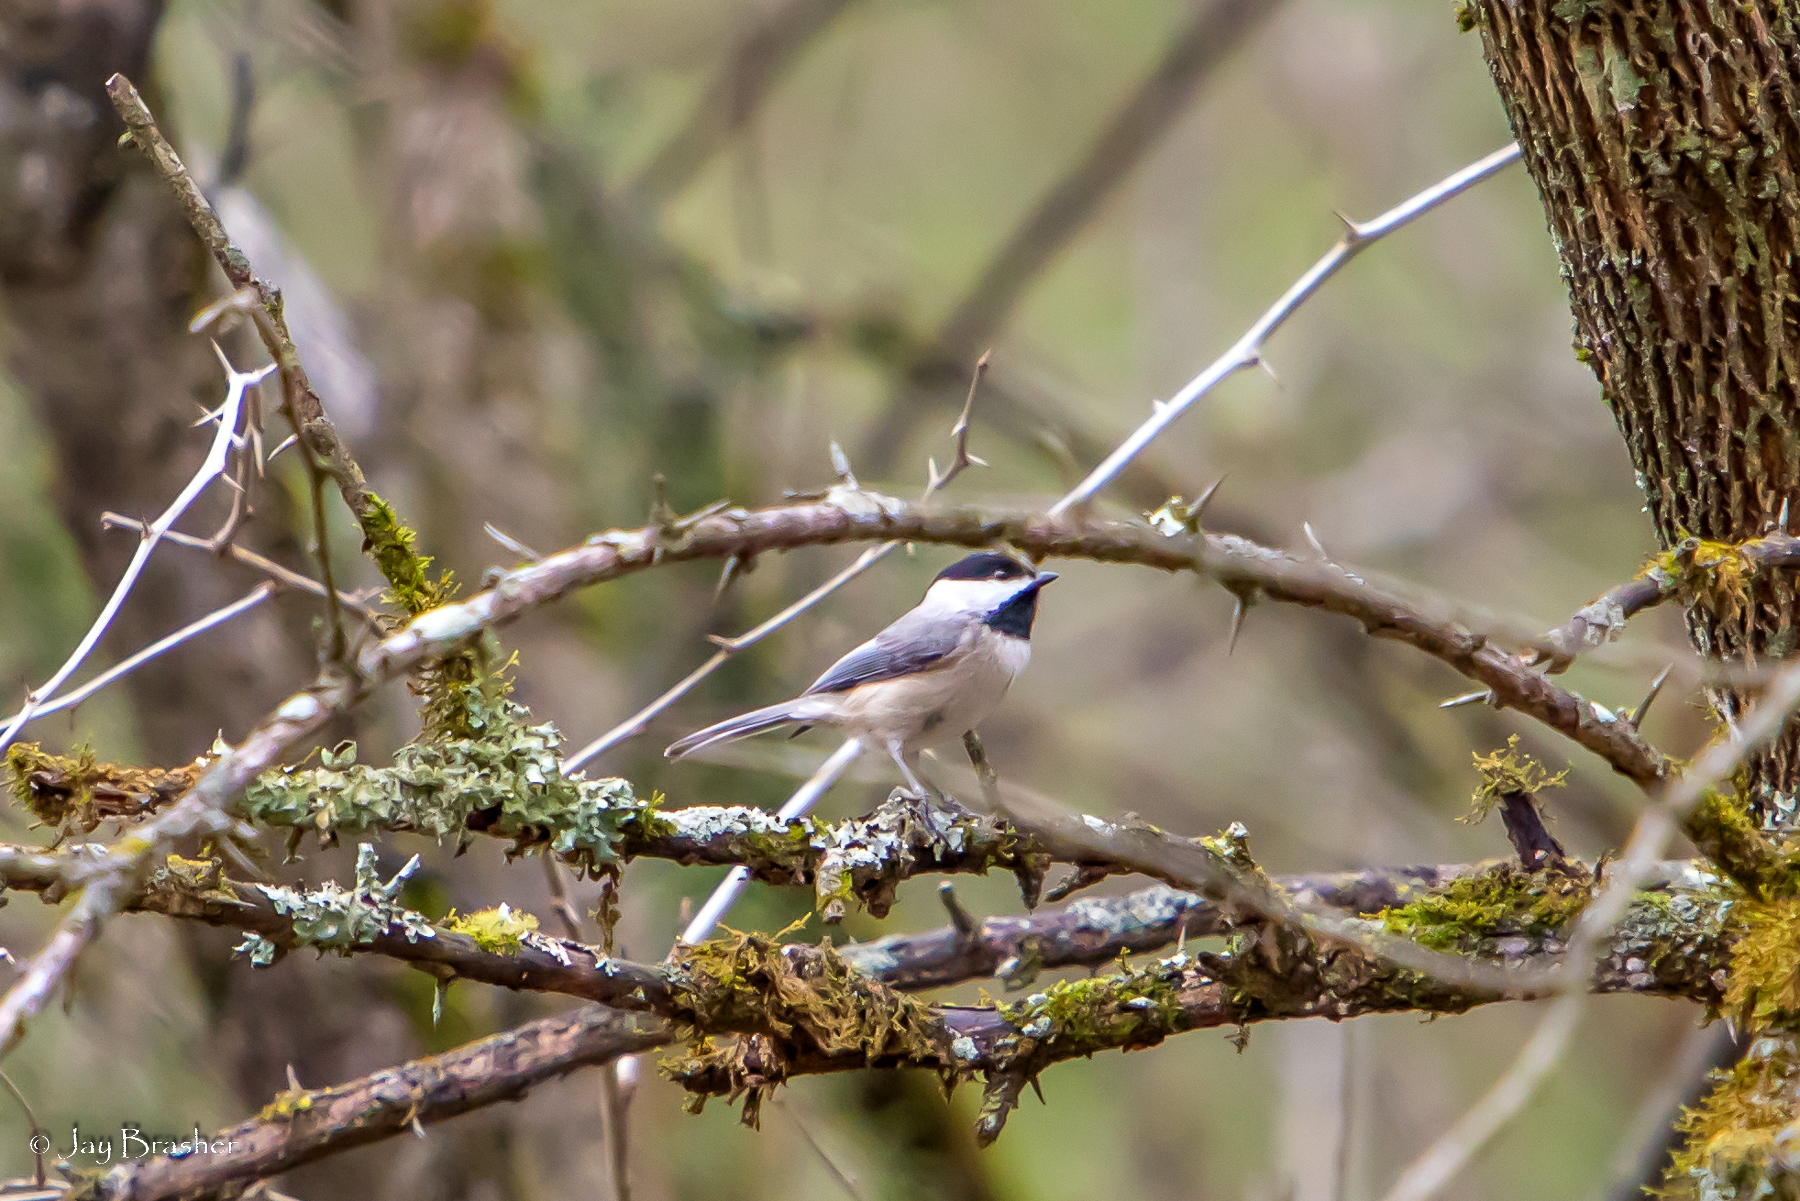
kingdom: Animalia
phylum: Chordata
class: Aves
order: Passeriformes
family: Paridae
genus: Poecile
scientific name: Poecile carolinensis
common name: Carolina chickadee
